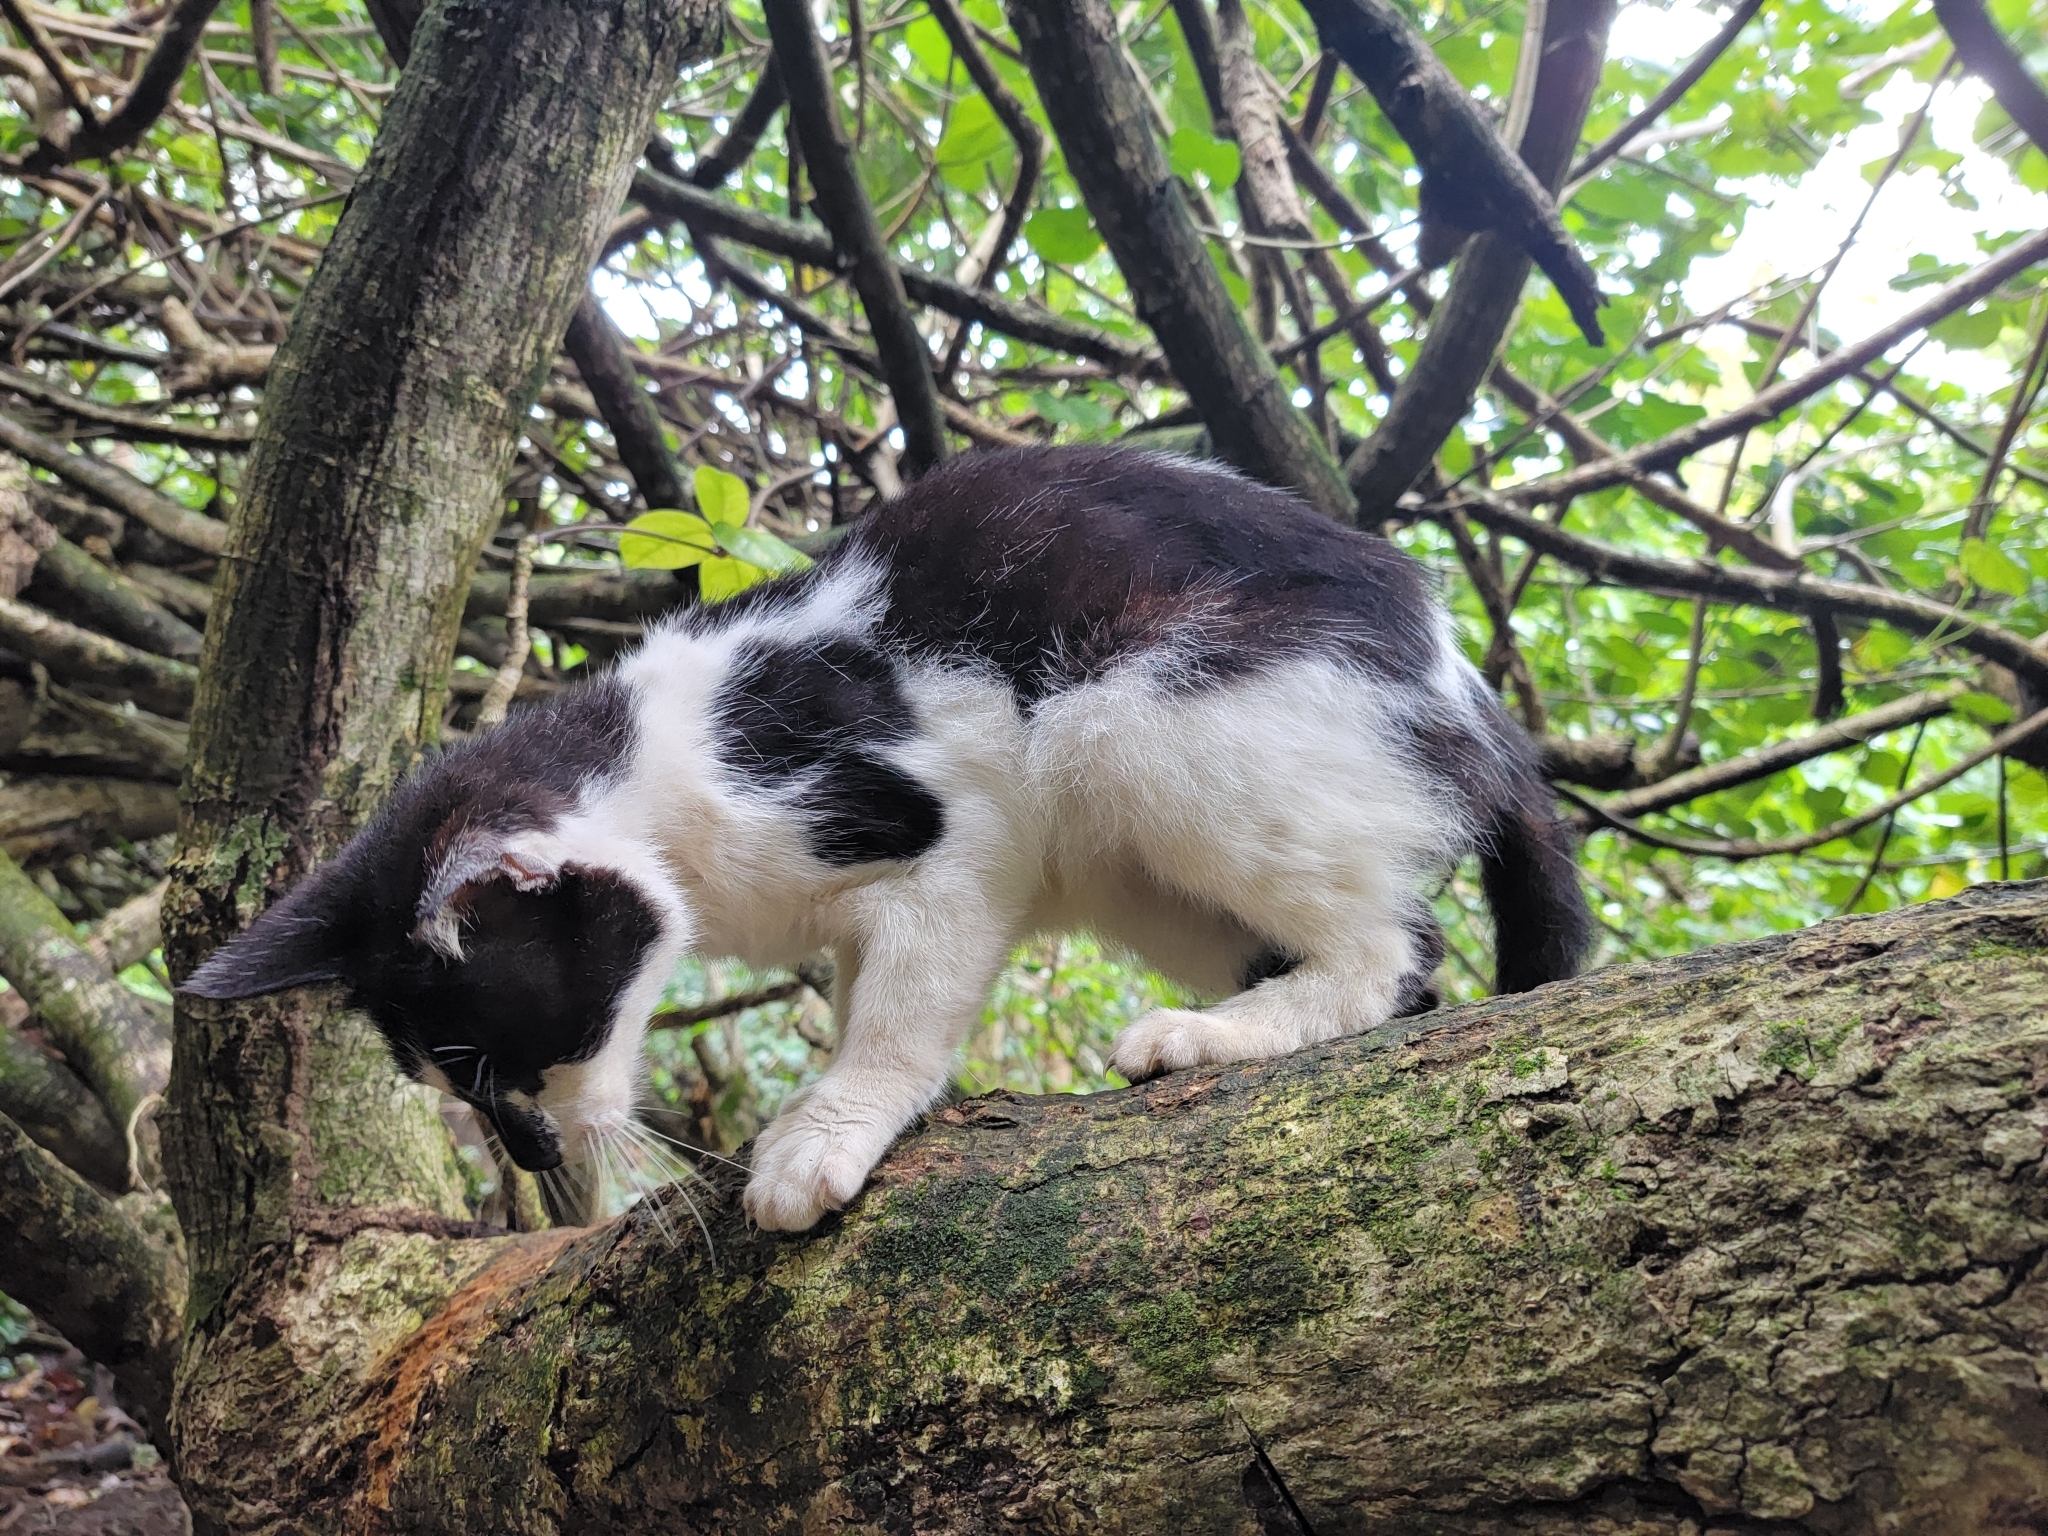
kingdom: Animalia
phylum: Chordata
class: Mammalia
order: Carnivora
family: Felidae
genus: Felis
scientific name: Felis catus
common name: Domestic cat
